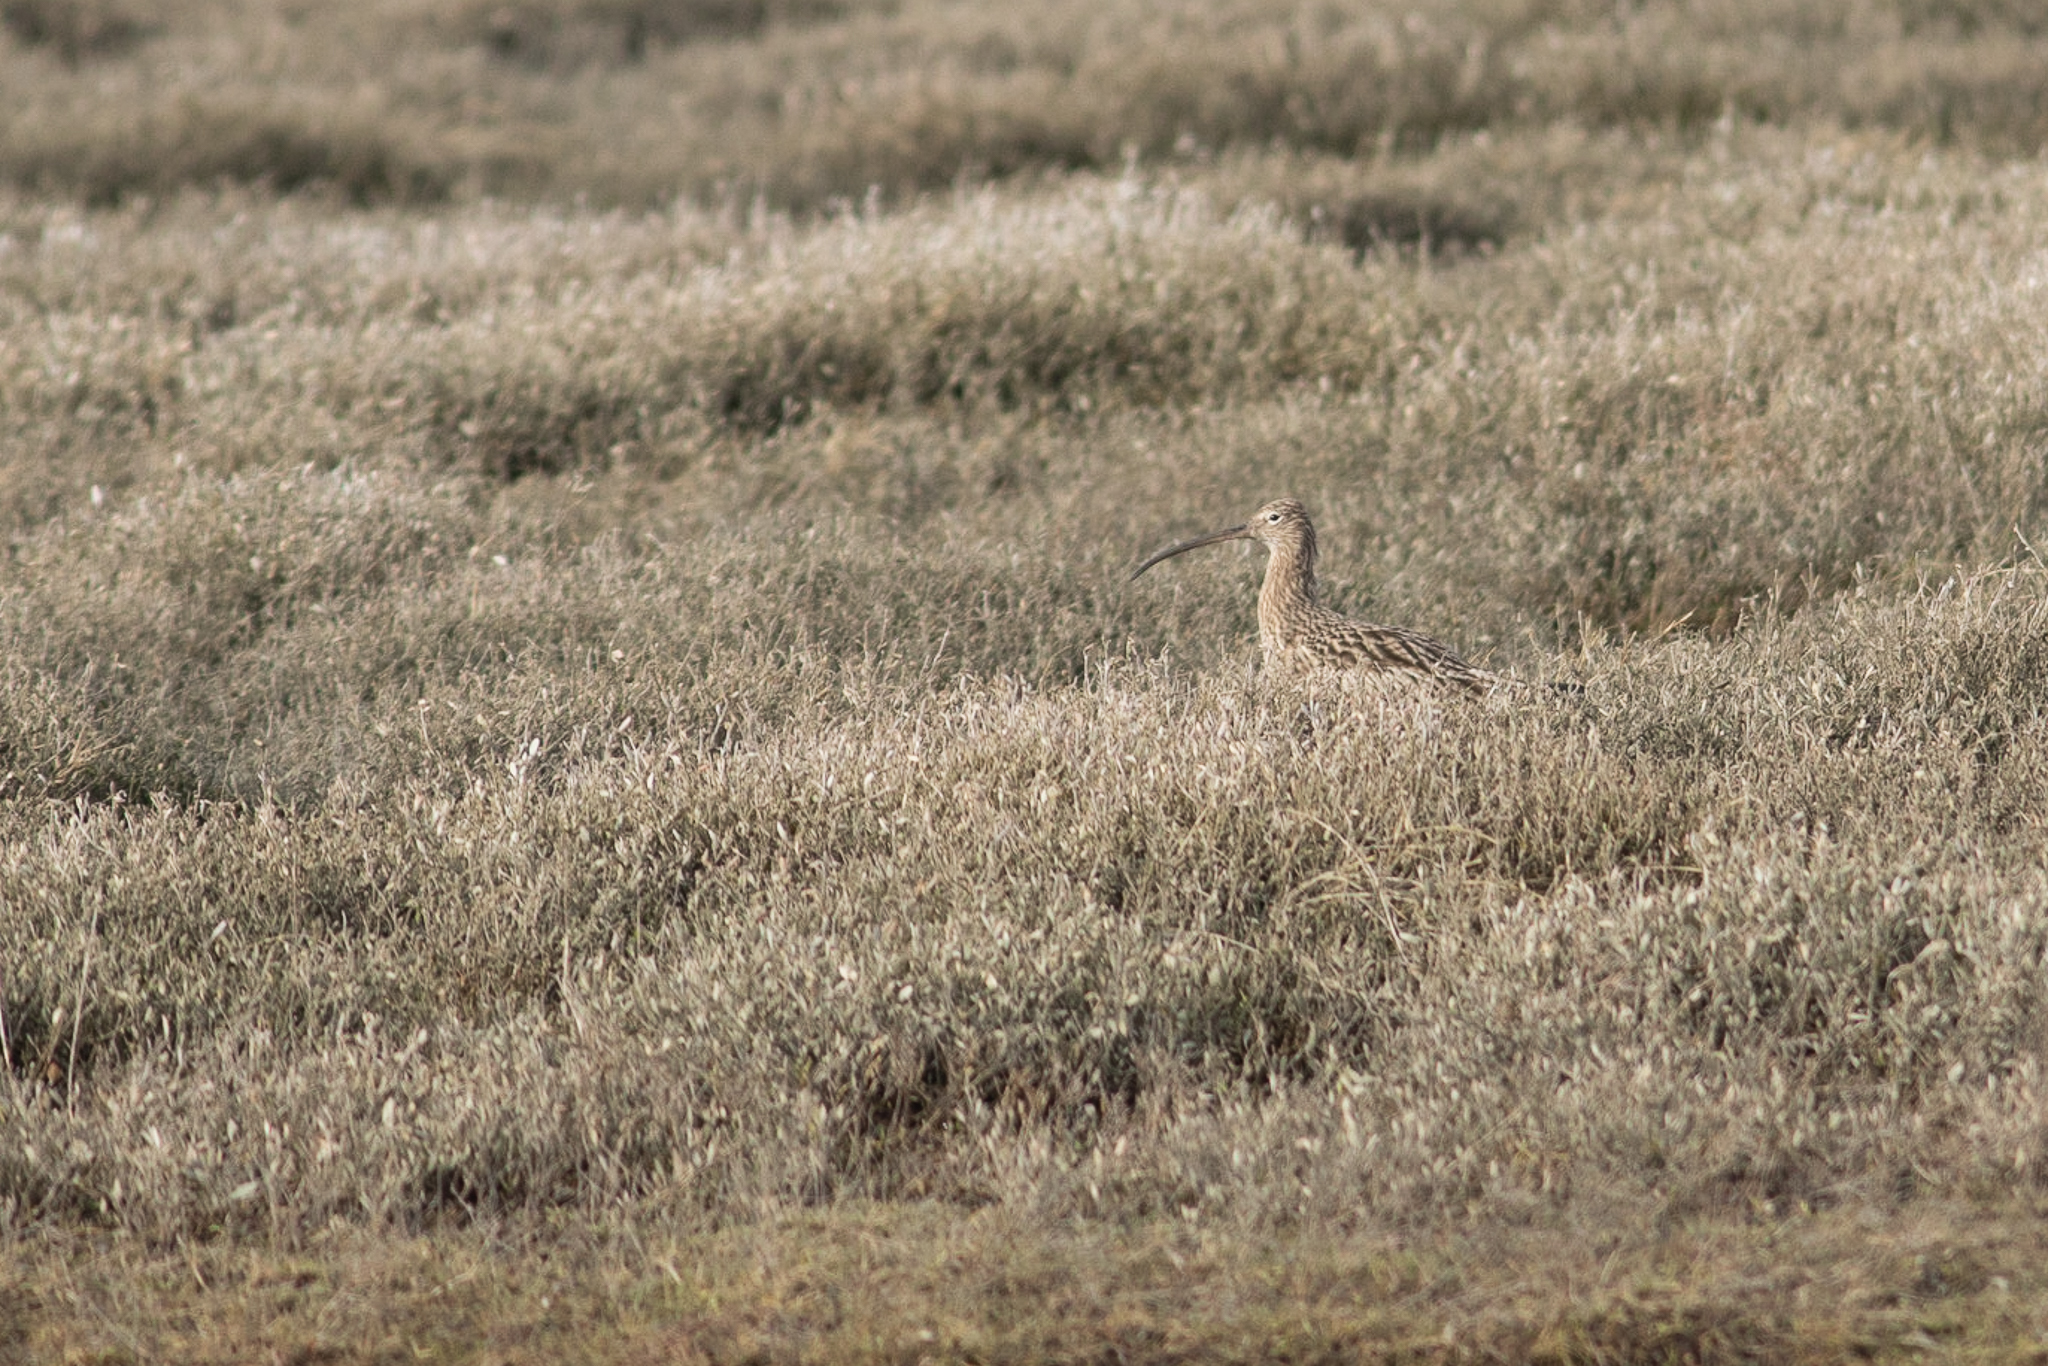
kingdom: Animalia
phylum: Chordata
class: Aves
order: Charadriiformes
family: Scolopacidae
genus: Numenius
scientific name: Numenius arquata
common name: Eurasian curlew
